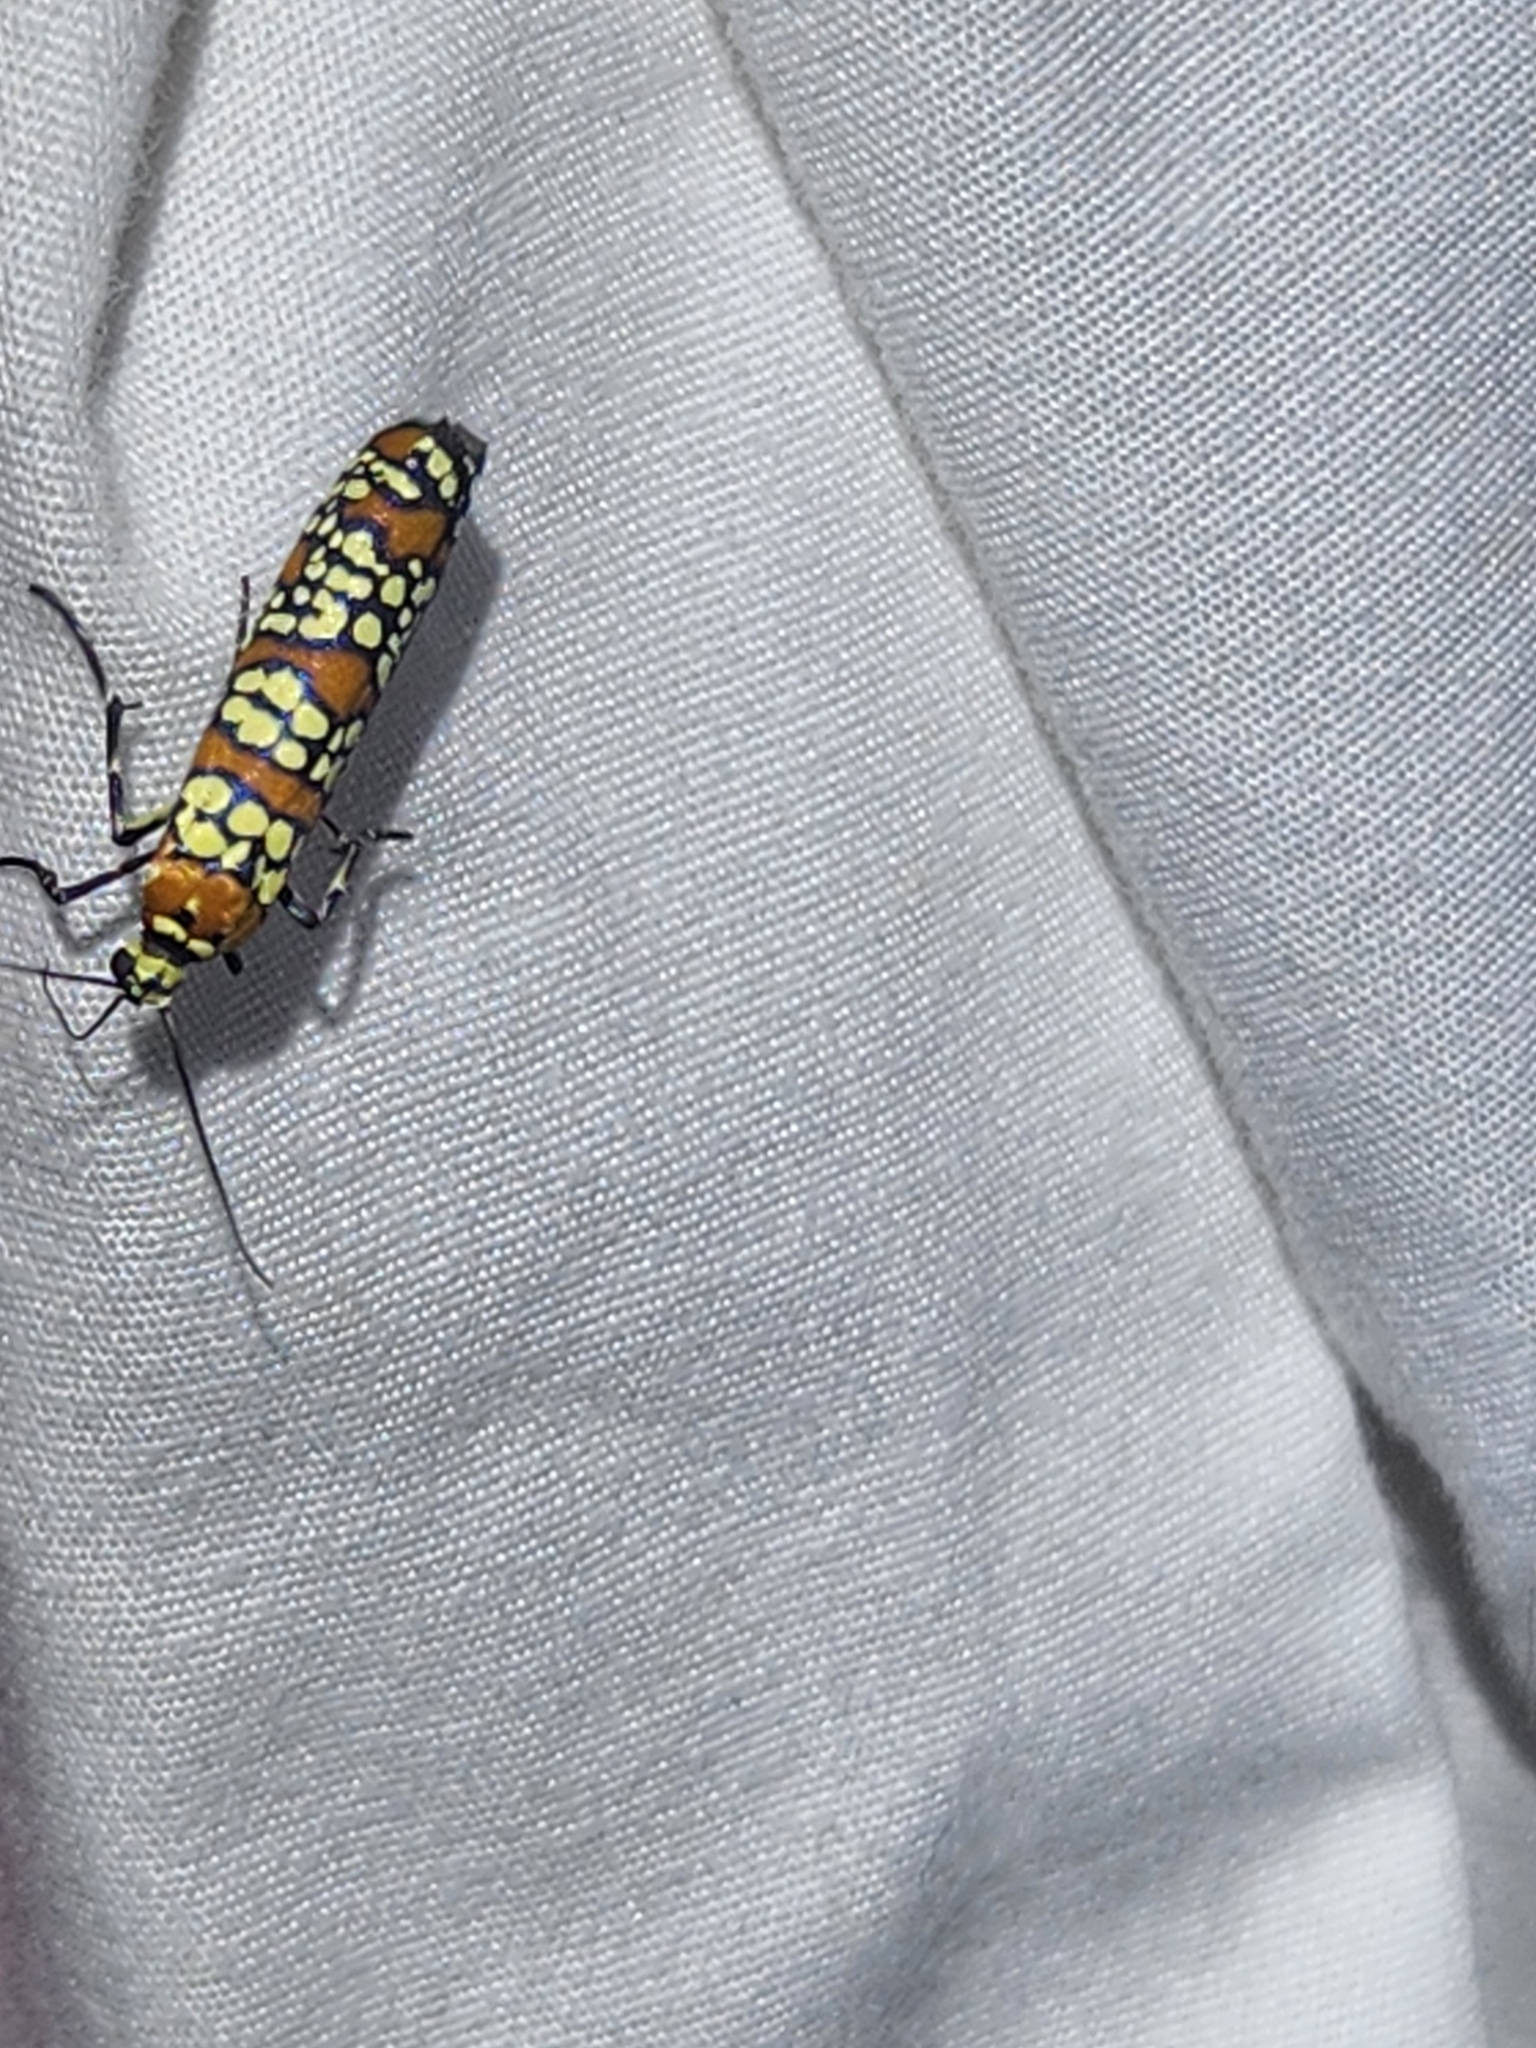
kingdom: Animalia
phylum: Arthropoda
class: Insecta
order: Lepidoptera
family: Attevidae
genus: Atteva
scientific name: Atteva punctella
